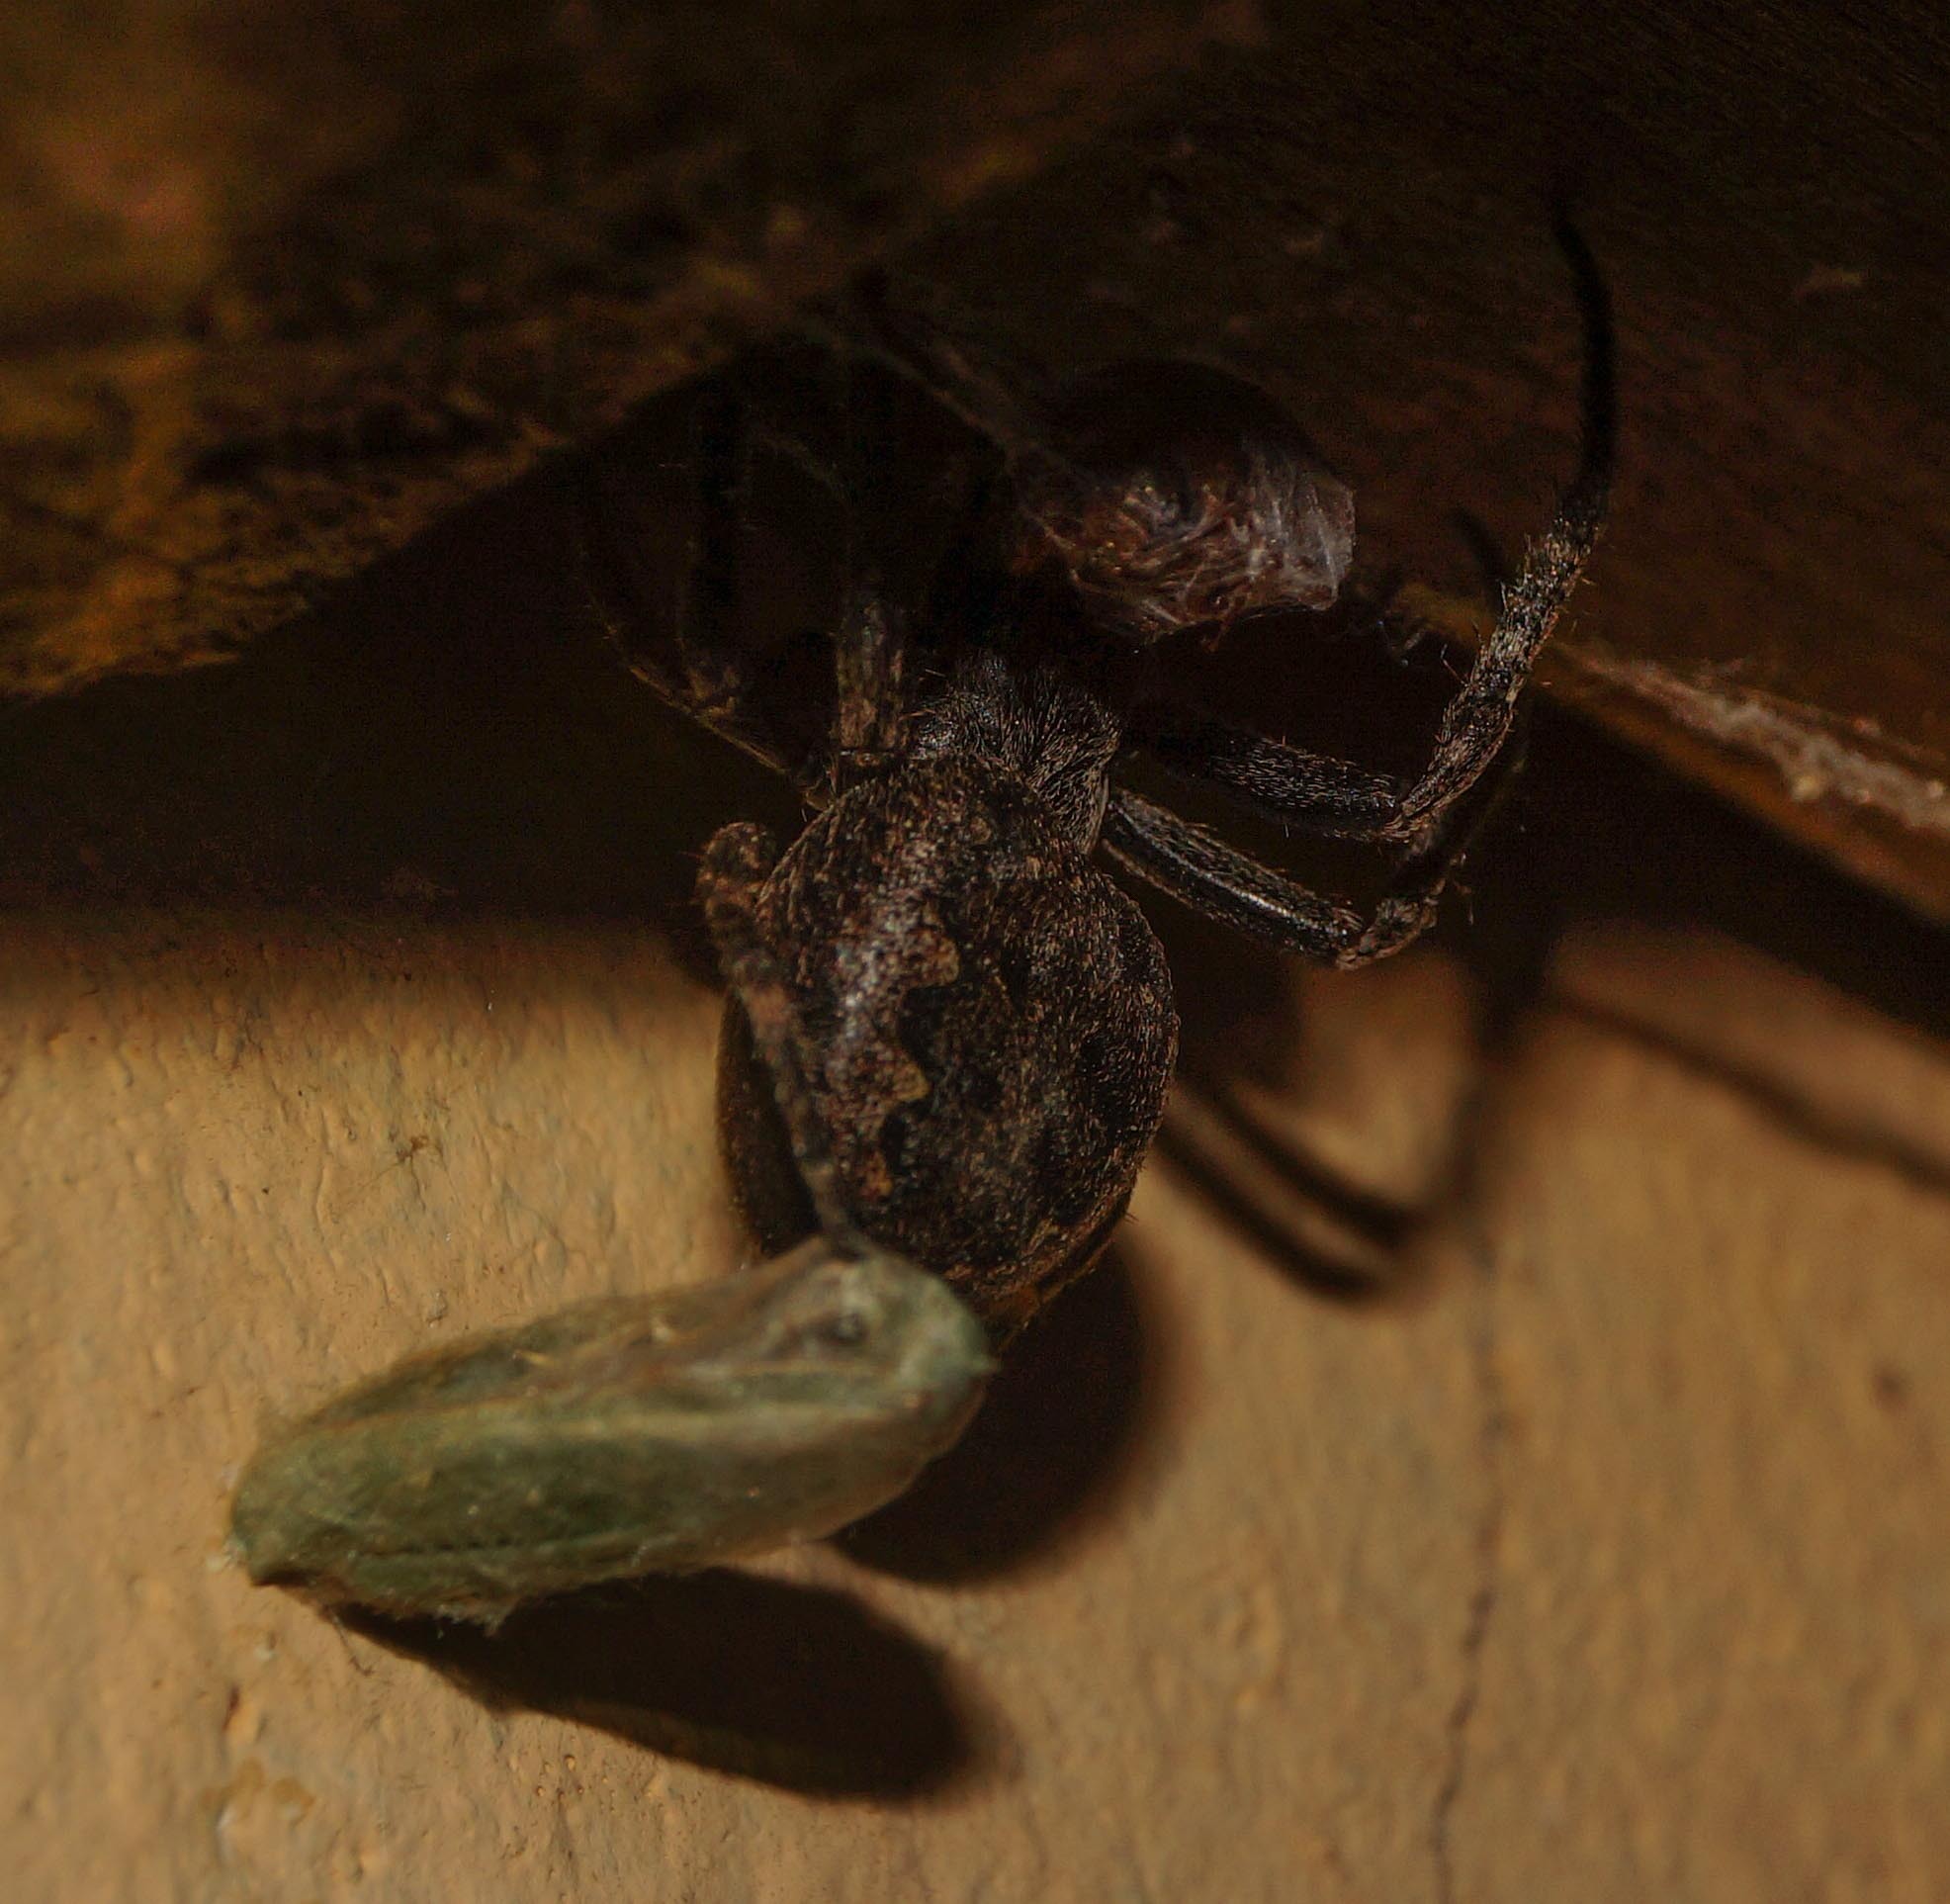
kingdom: Animalia
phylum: Arthropoda
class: Arachnida
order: Araneae
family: Araneidae
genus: Nuctenea
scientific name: Nuctenea umbratica
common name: Toad spider
